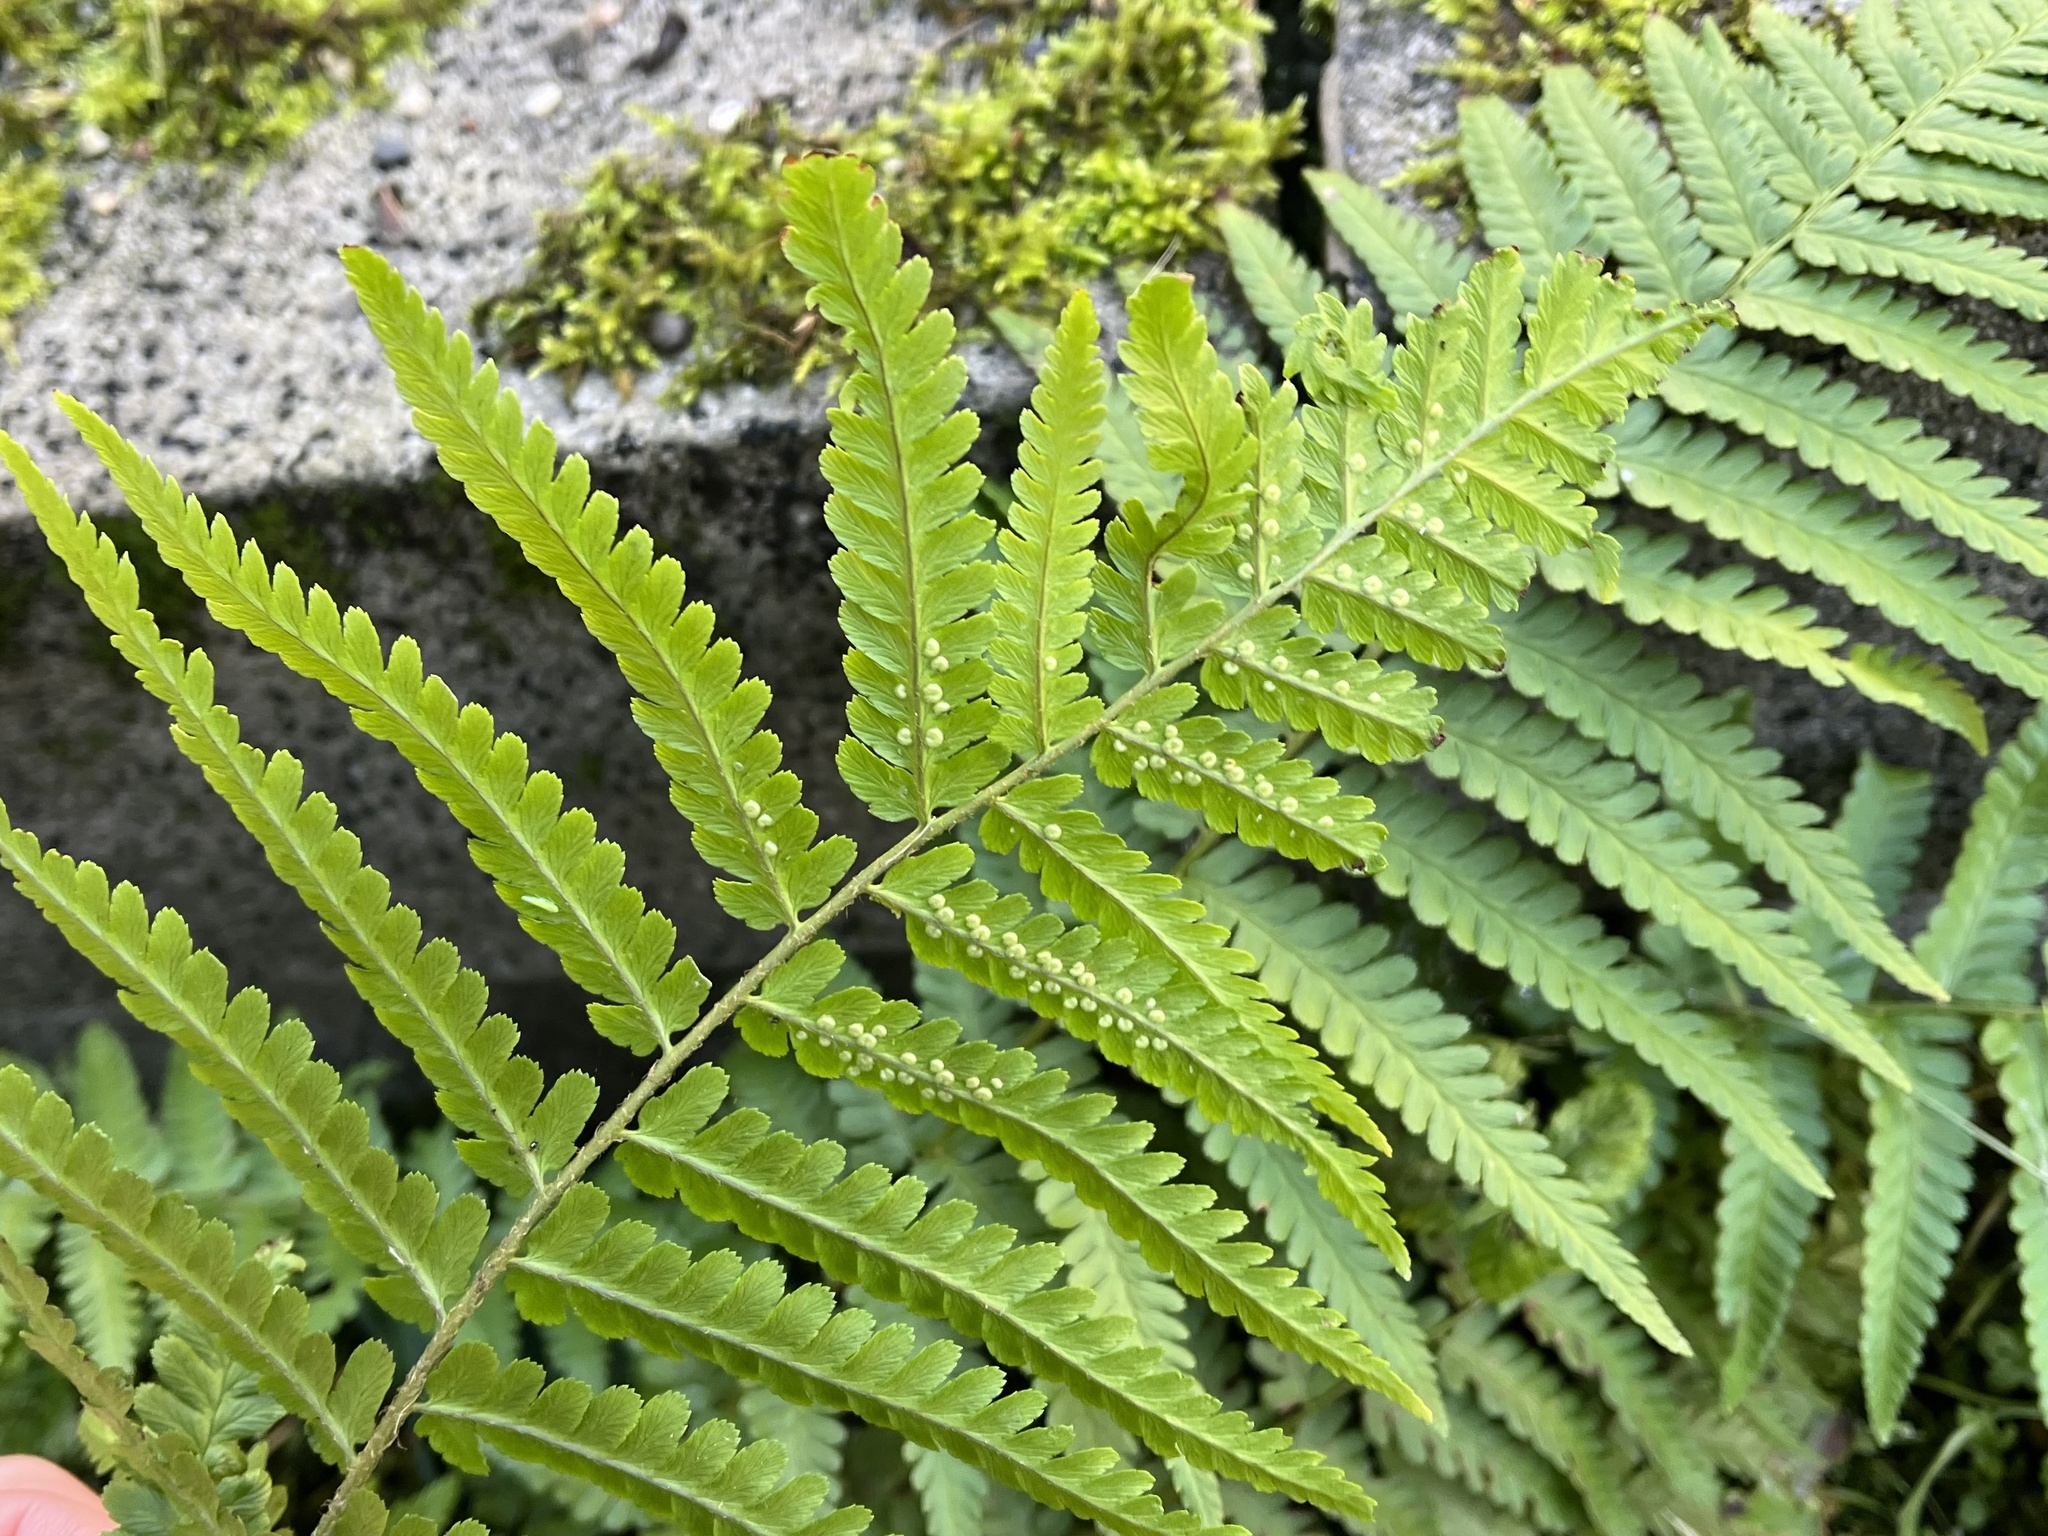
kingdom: Plantae
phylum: Tracheophyta
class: Polypodiopsida
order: Polypodiales
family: Dryopteridaceae
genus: Dryopteris
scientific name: Dryopteris filix-mas
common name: Male fern
